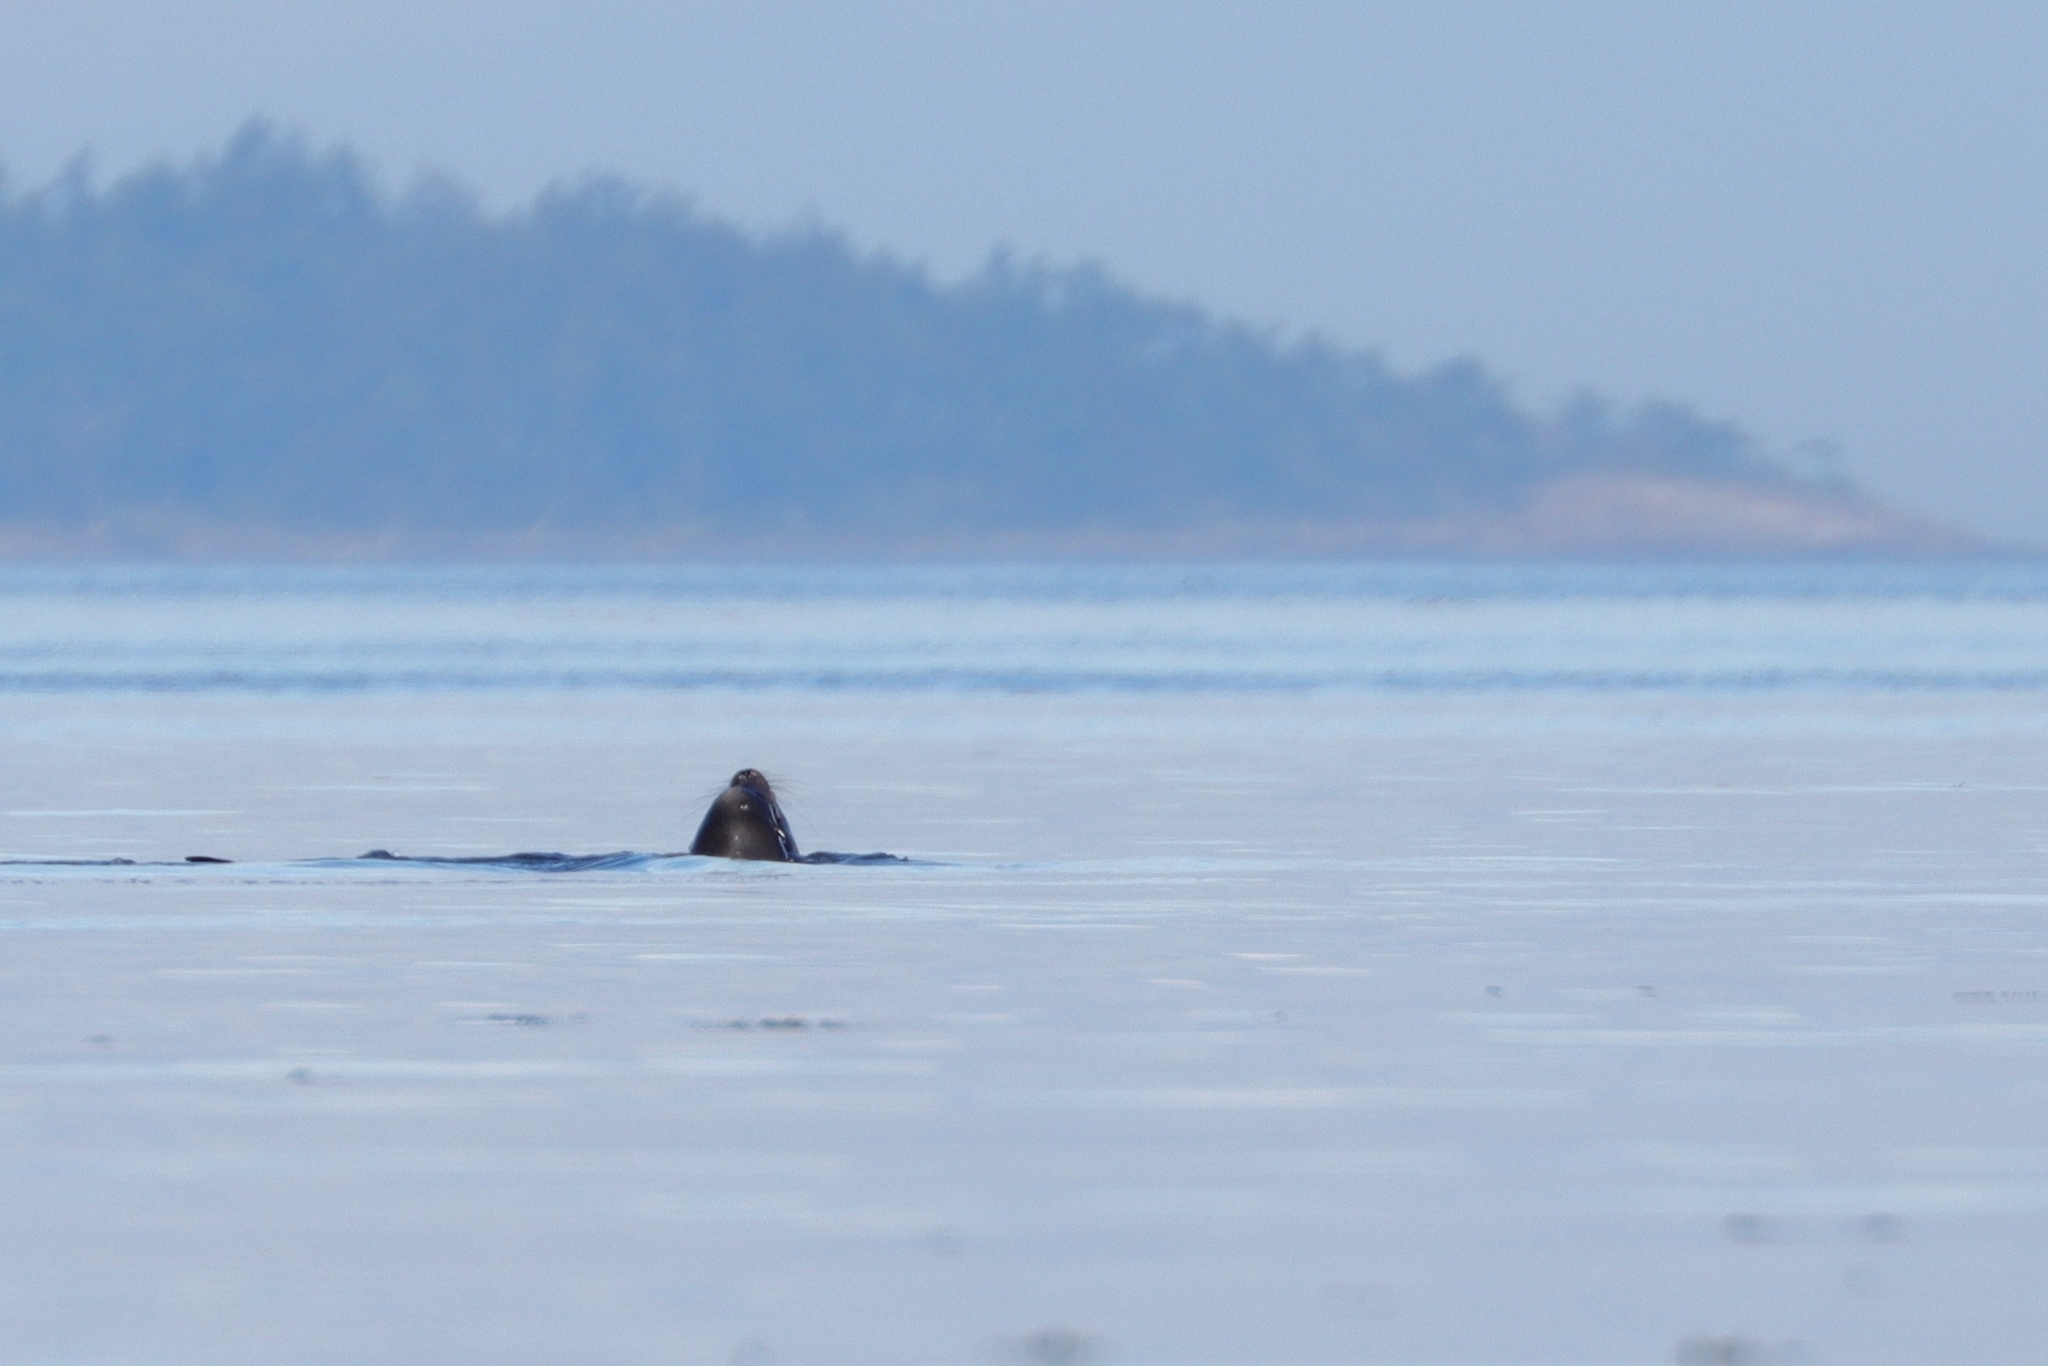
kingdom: Animalia
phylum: Chordata
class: Mammalia
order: Carnivora
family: Otariidae
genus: Zalophus
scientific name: Zalophus californianus
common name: California sea lion
